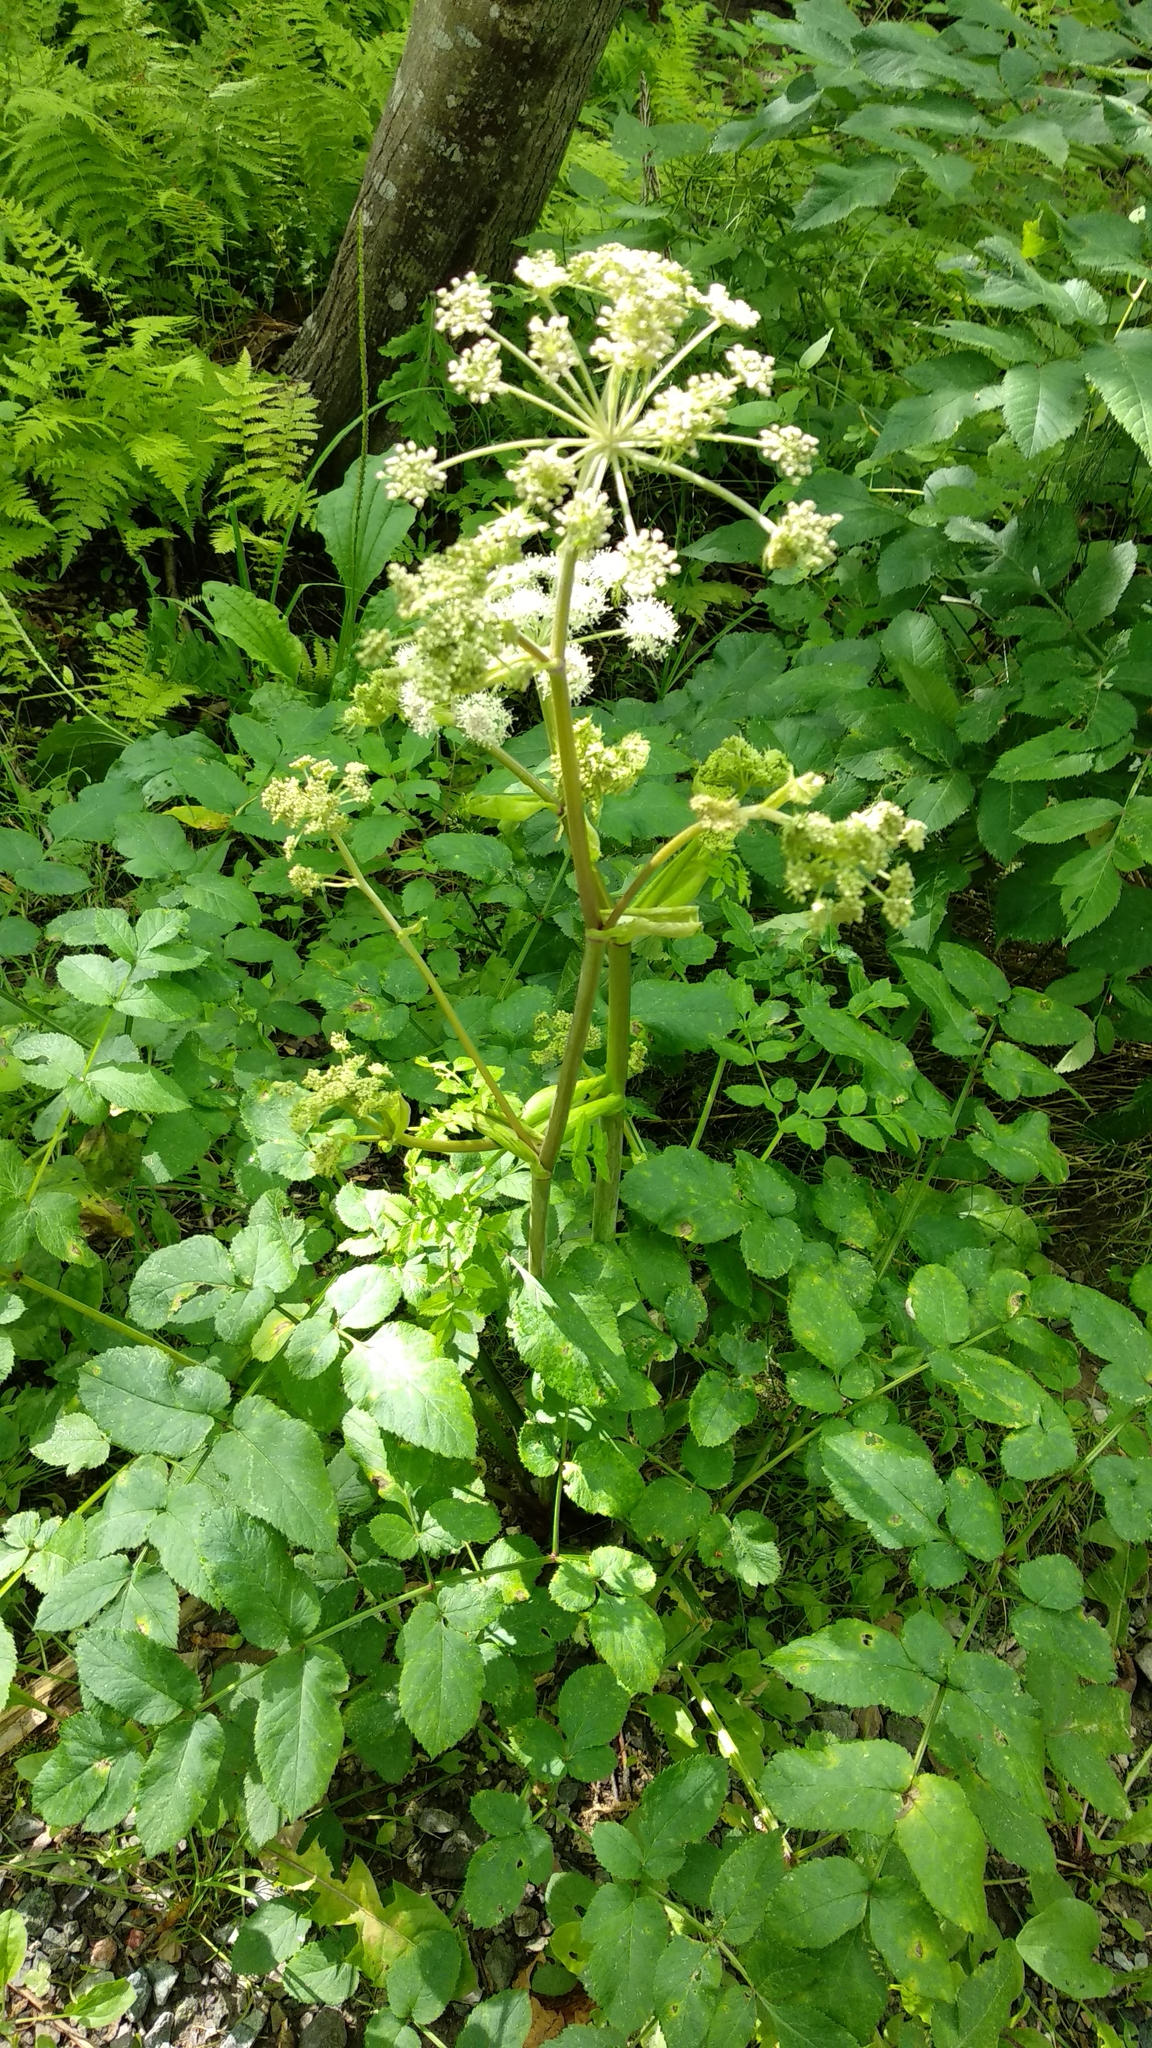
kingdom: Plantae
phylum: Tracheophyta
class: Magnoliopsida
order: Apiales
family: Apiaceae
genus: Angelica
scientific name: Angelica sylvestris
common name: Wild angelica
